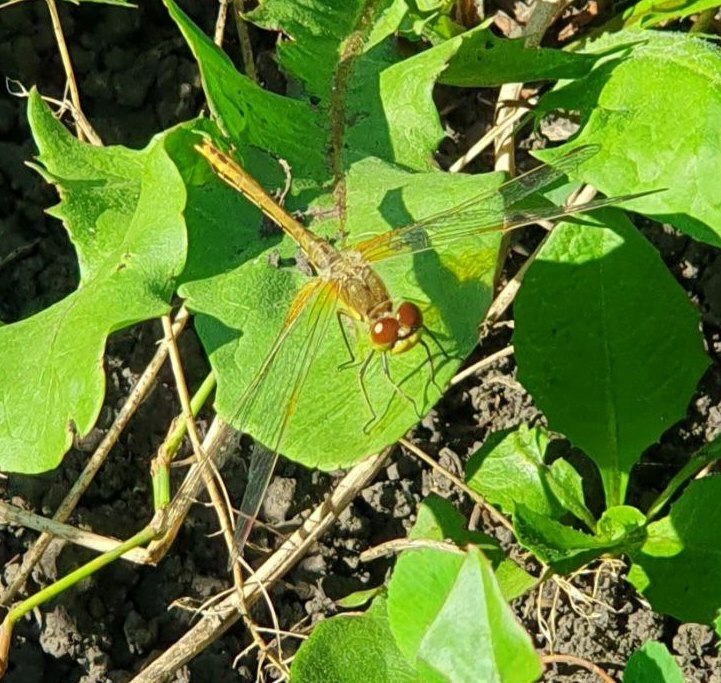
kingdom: Animalia
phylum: Arthropoda
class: Insecta
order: Odonata
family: Libellulidae
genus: Sympetrum
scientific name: Sympetrum flaveolum
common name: Yellow-winged darter
